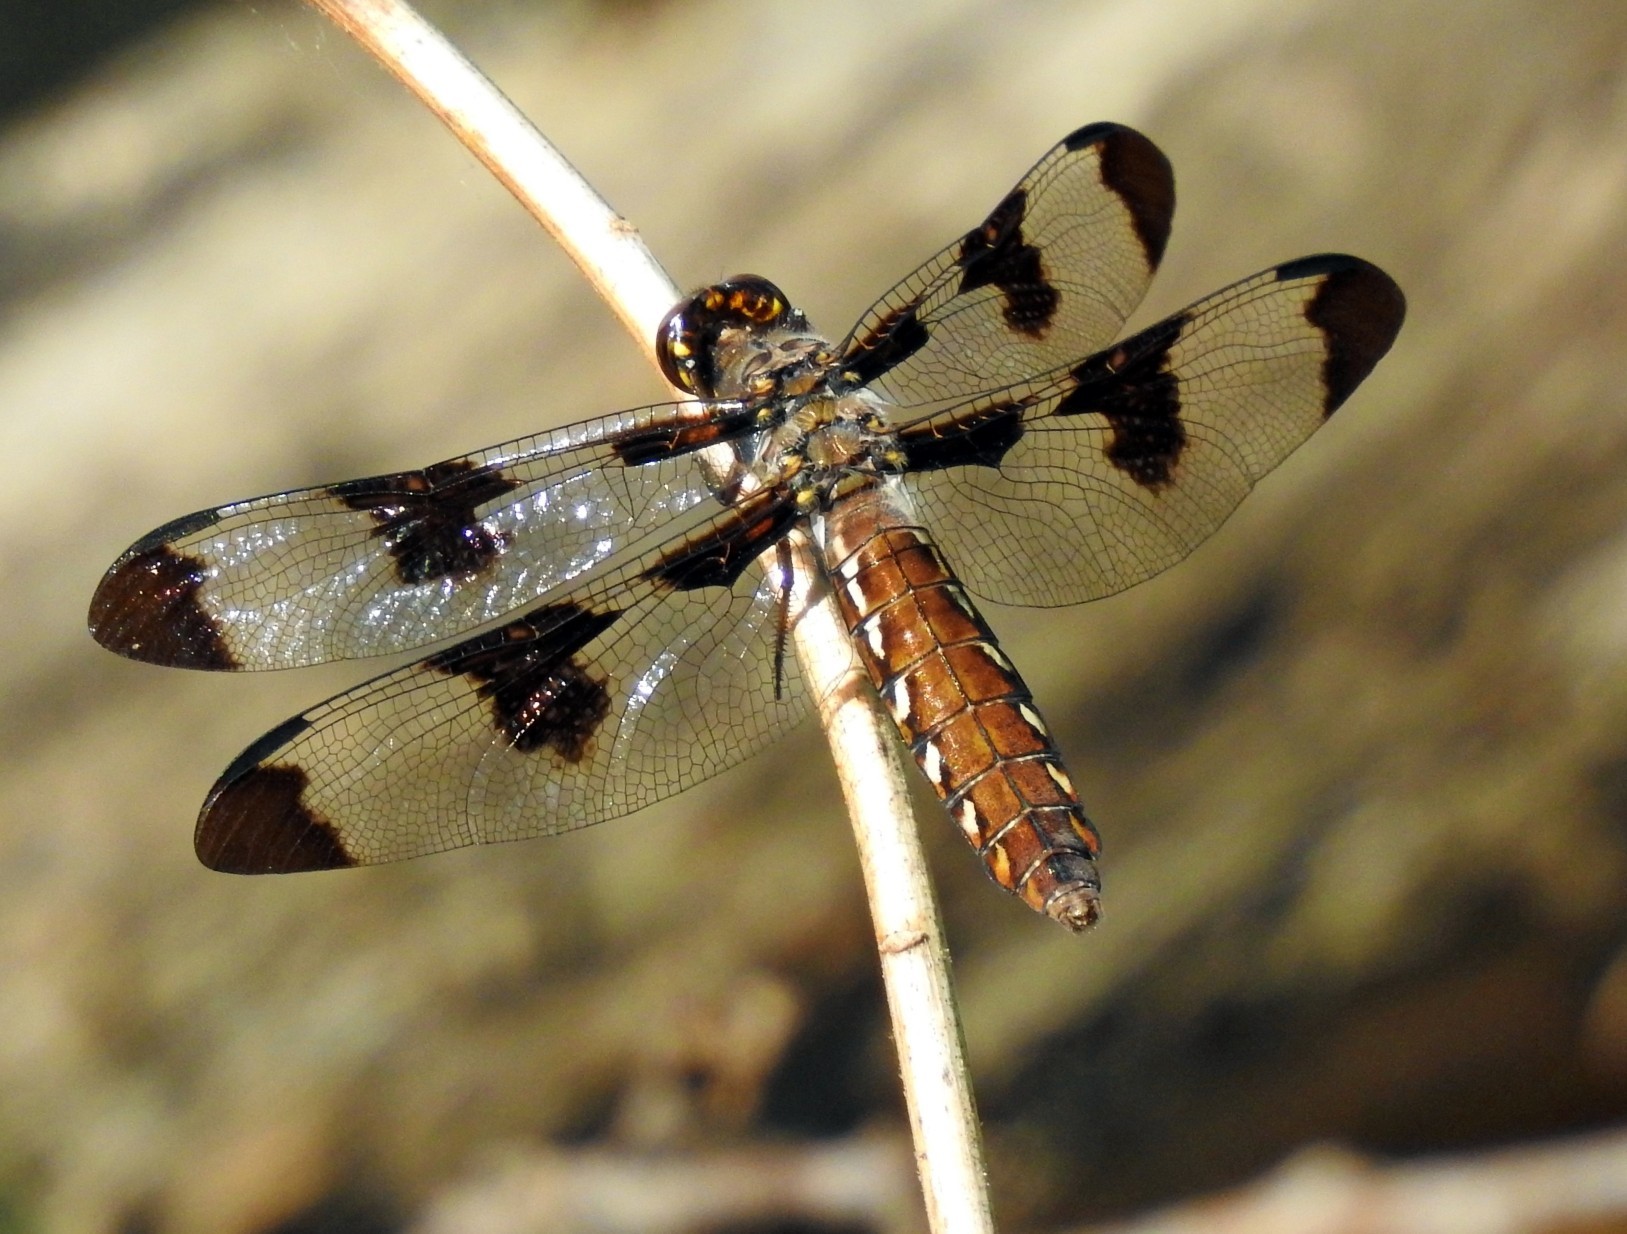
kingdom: Animalia
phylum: Arthropoda
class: Insecta
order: Odonata
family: Libellulidae
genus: Plathemis
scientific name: Plathemis lydia
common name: Common whitetail
